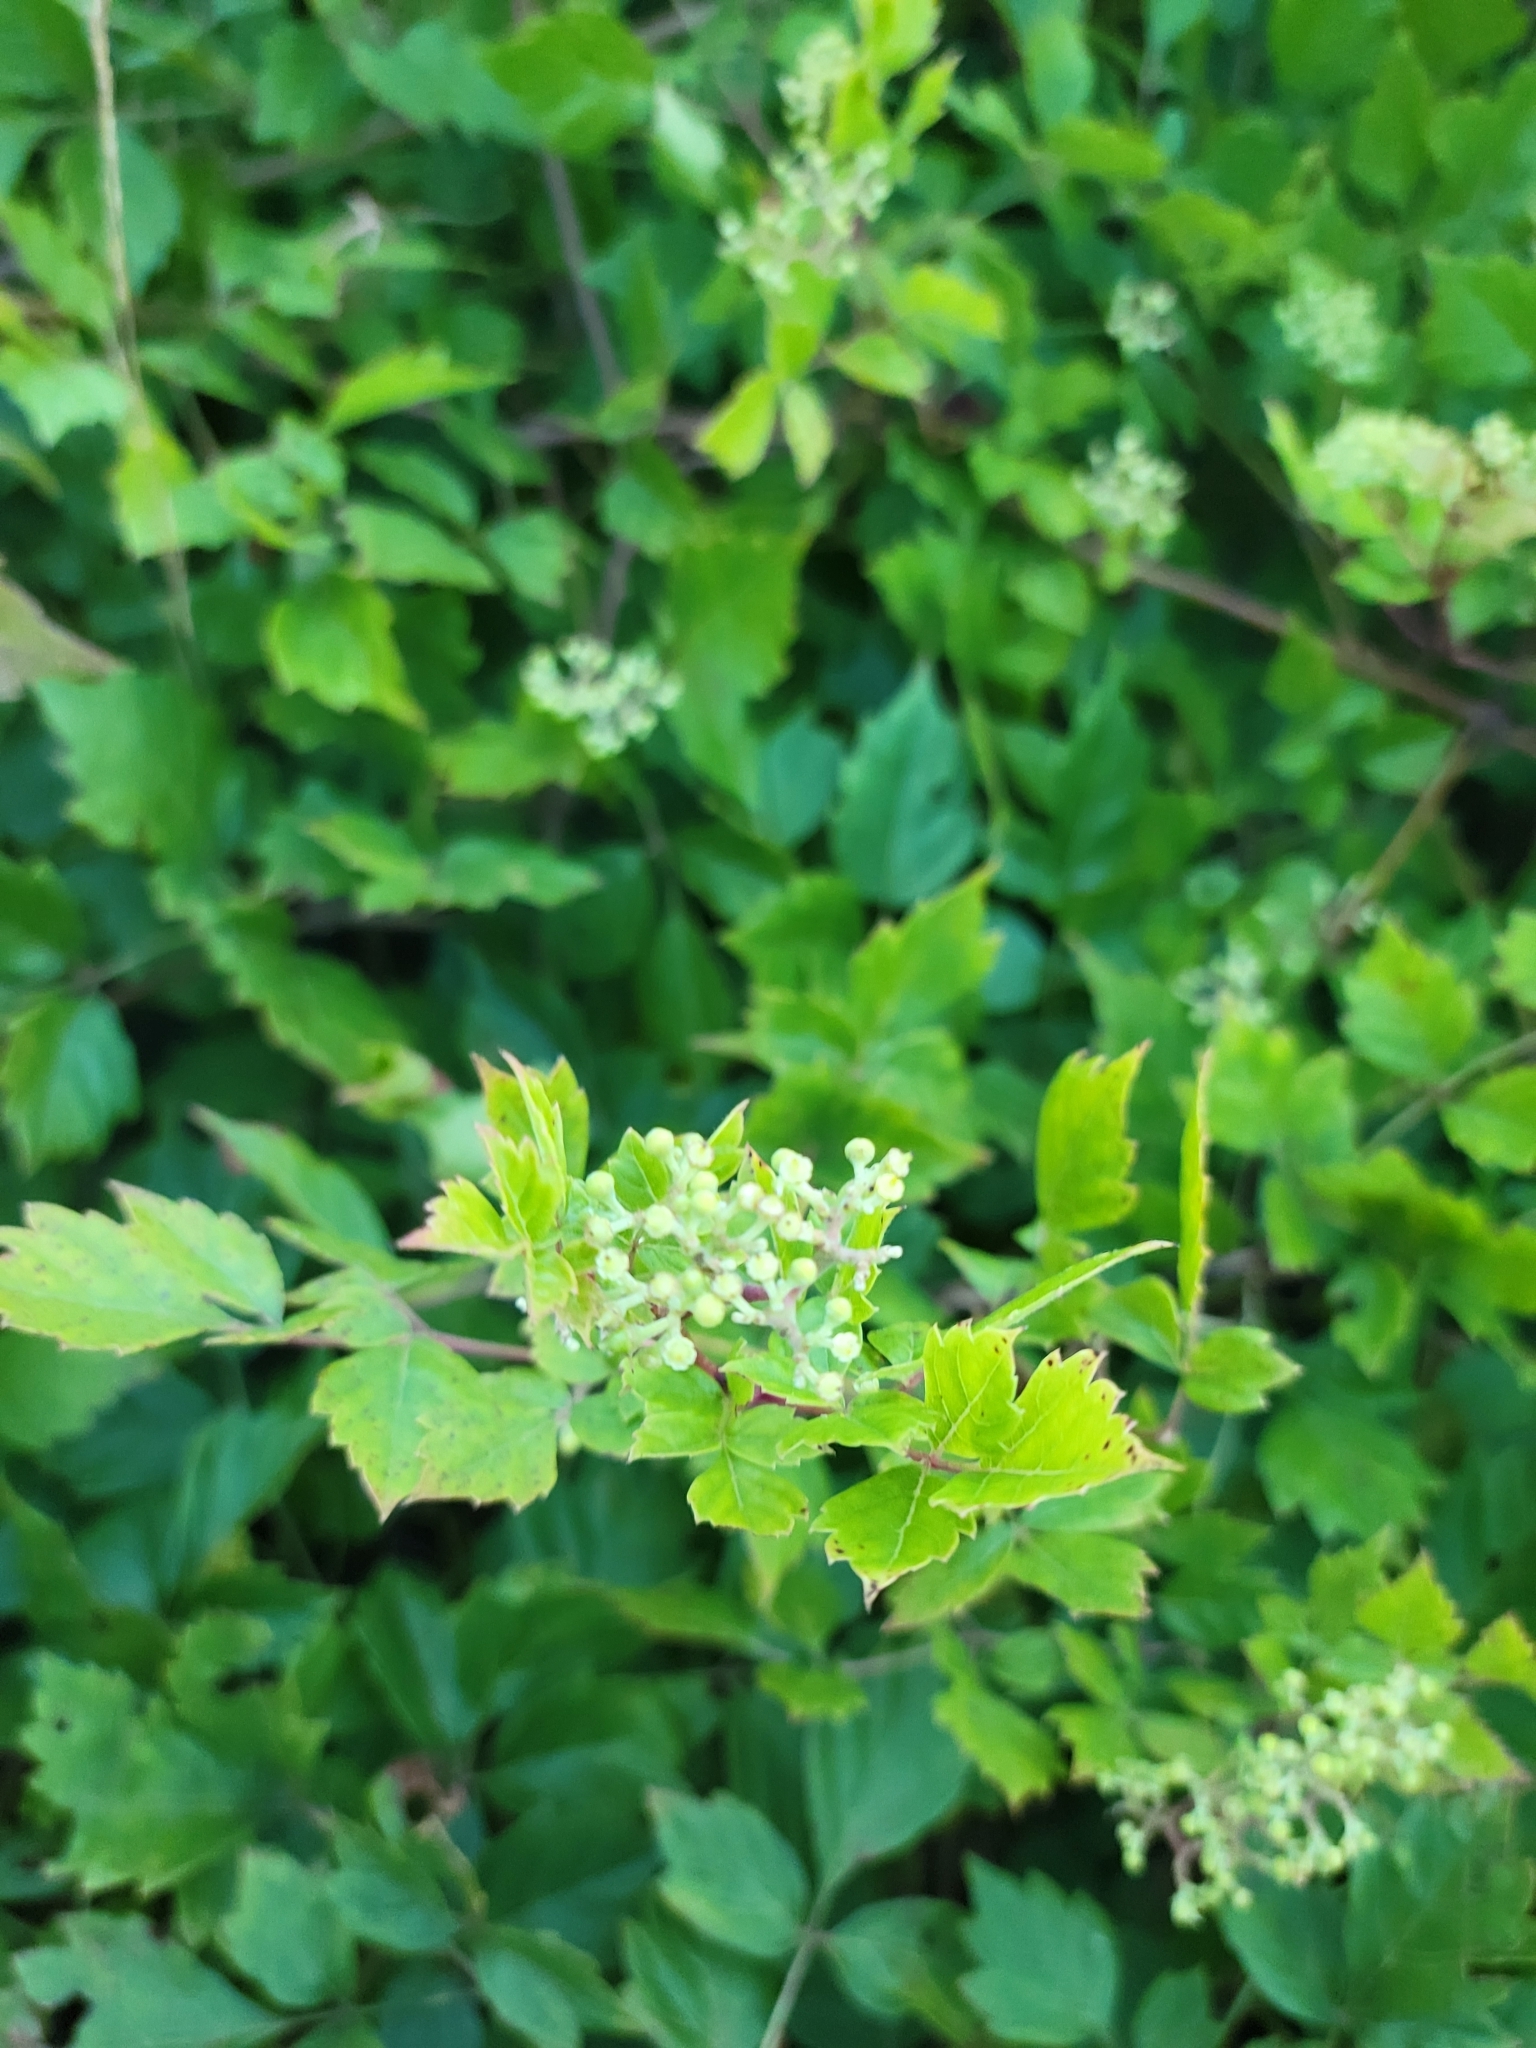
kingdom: Plantae
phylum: Tracheophyta
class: Magnoliopsida
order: Vitales
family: Vitaceae
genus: Nekemias
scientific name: Nekemias arborea
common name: Peppervine
